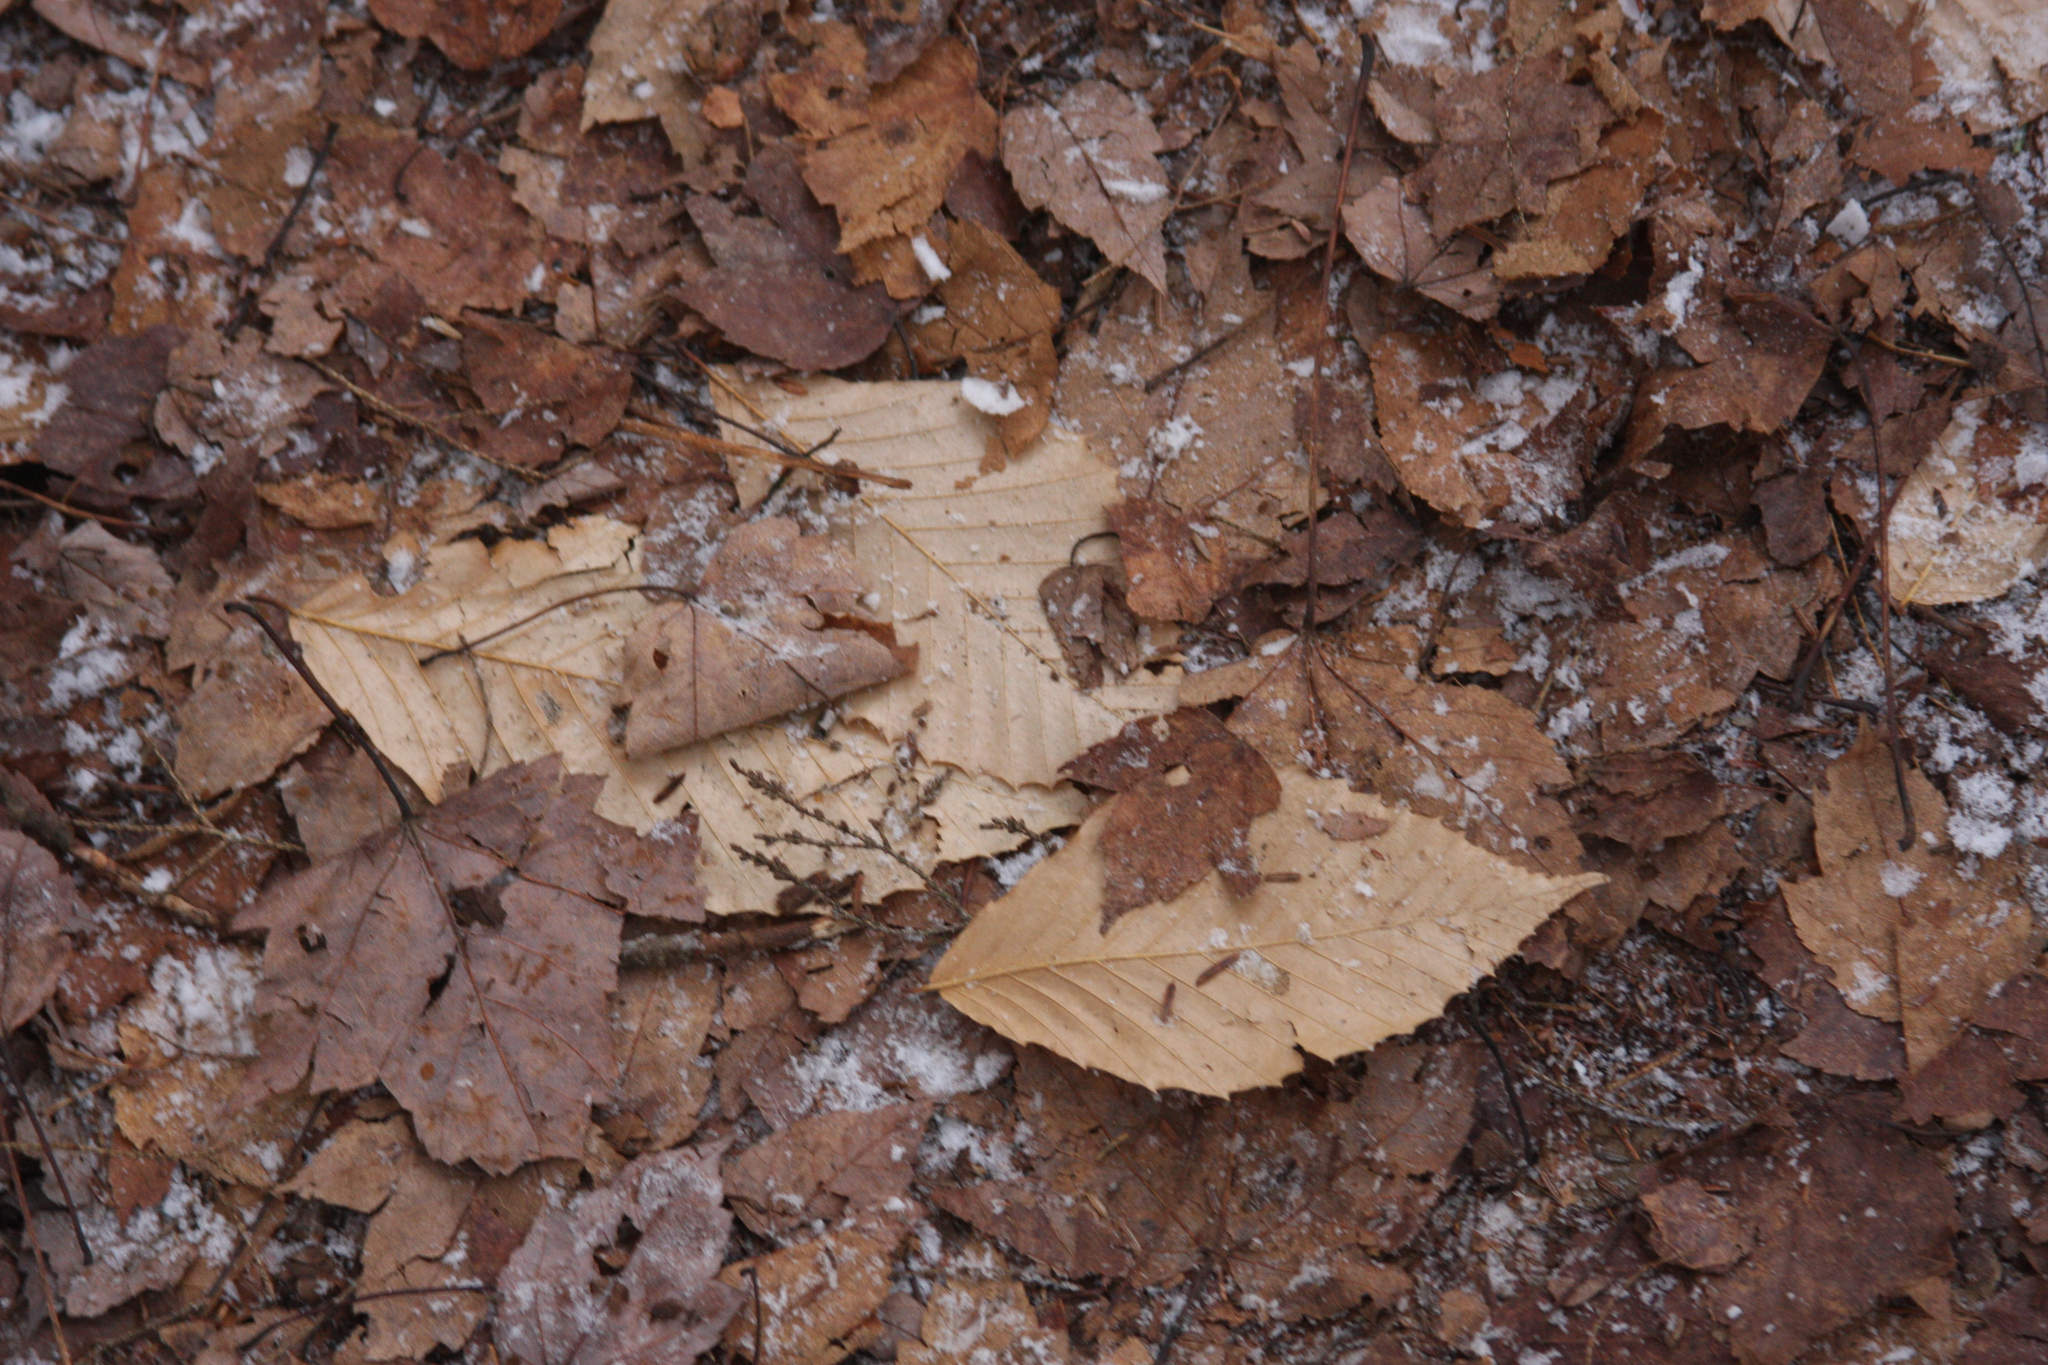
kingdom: Plantae
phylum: Tracheophyta
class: Magnoliopsida
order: Fagales
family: Fagaceae
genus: Fagus
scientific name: Fagus grandifolia
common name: American beech
